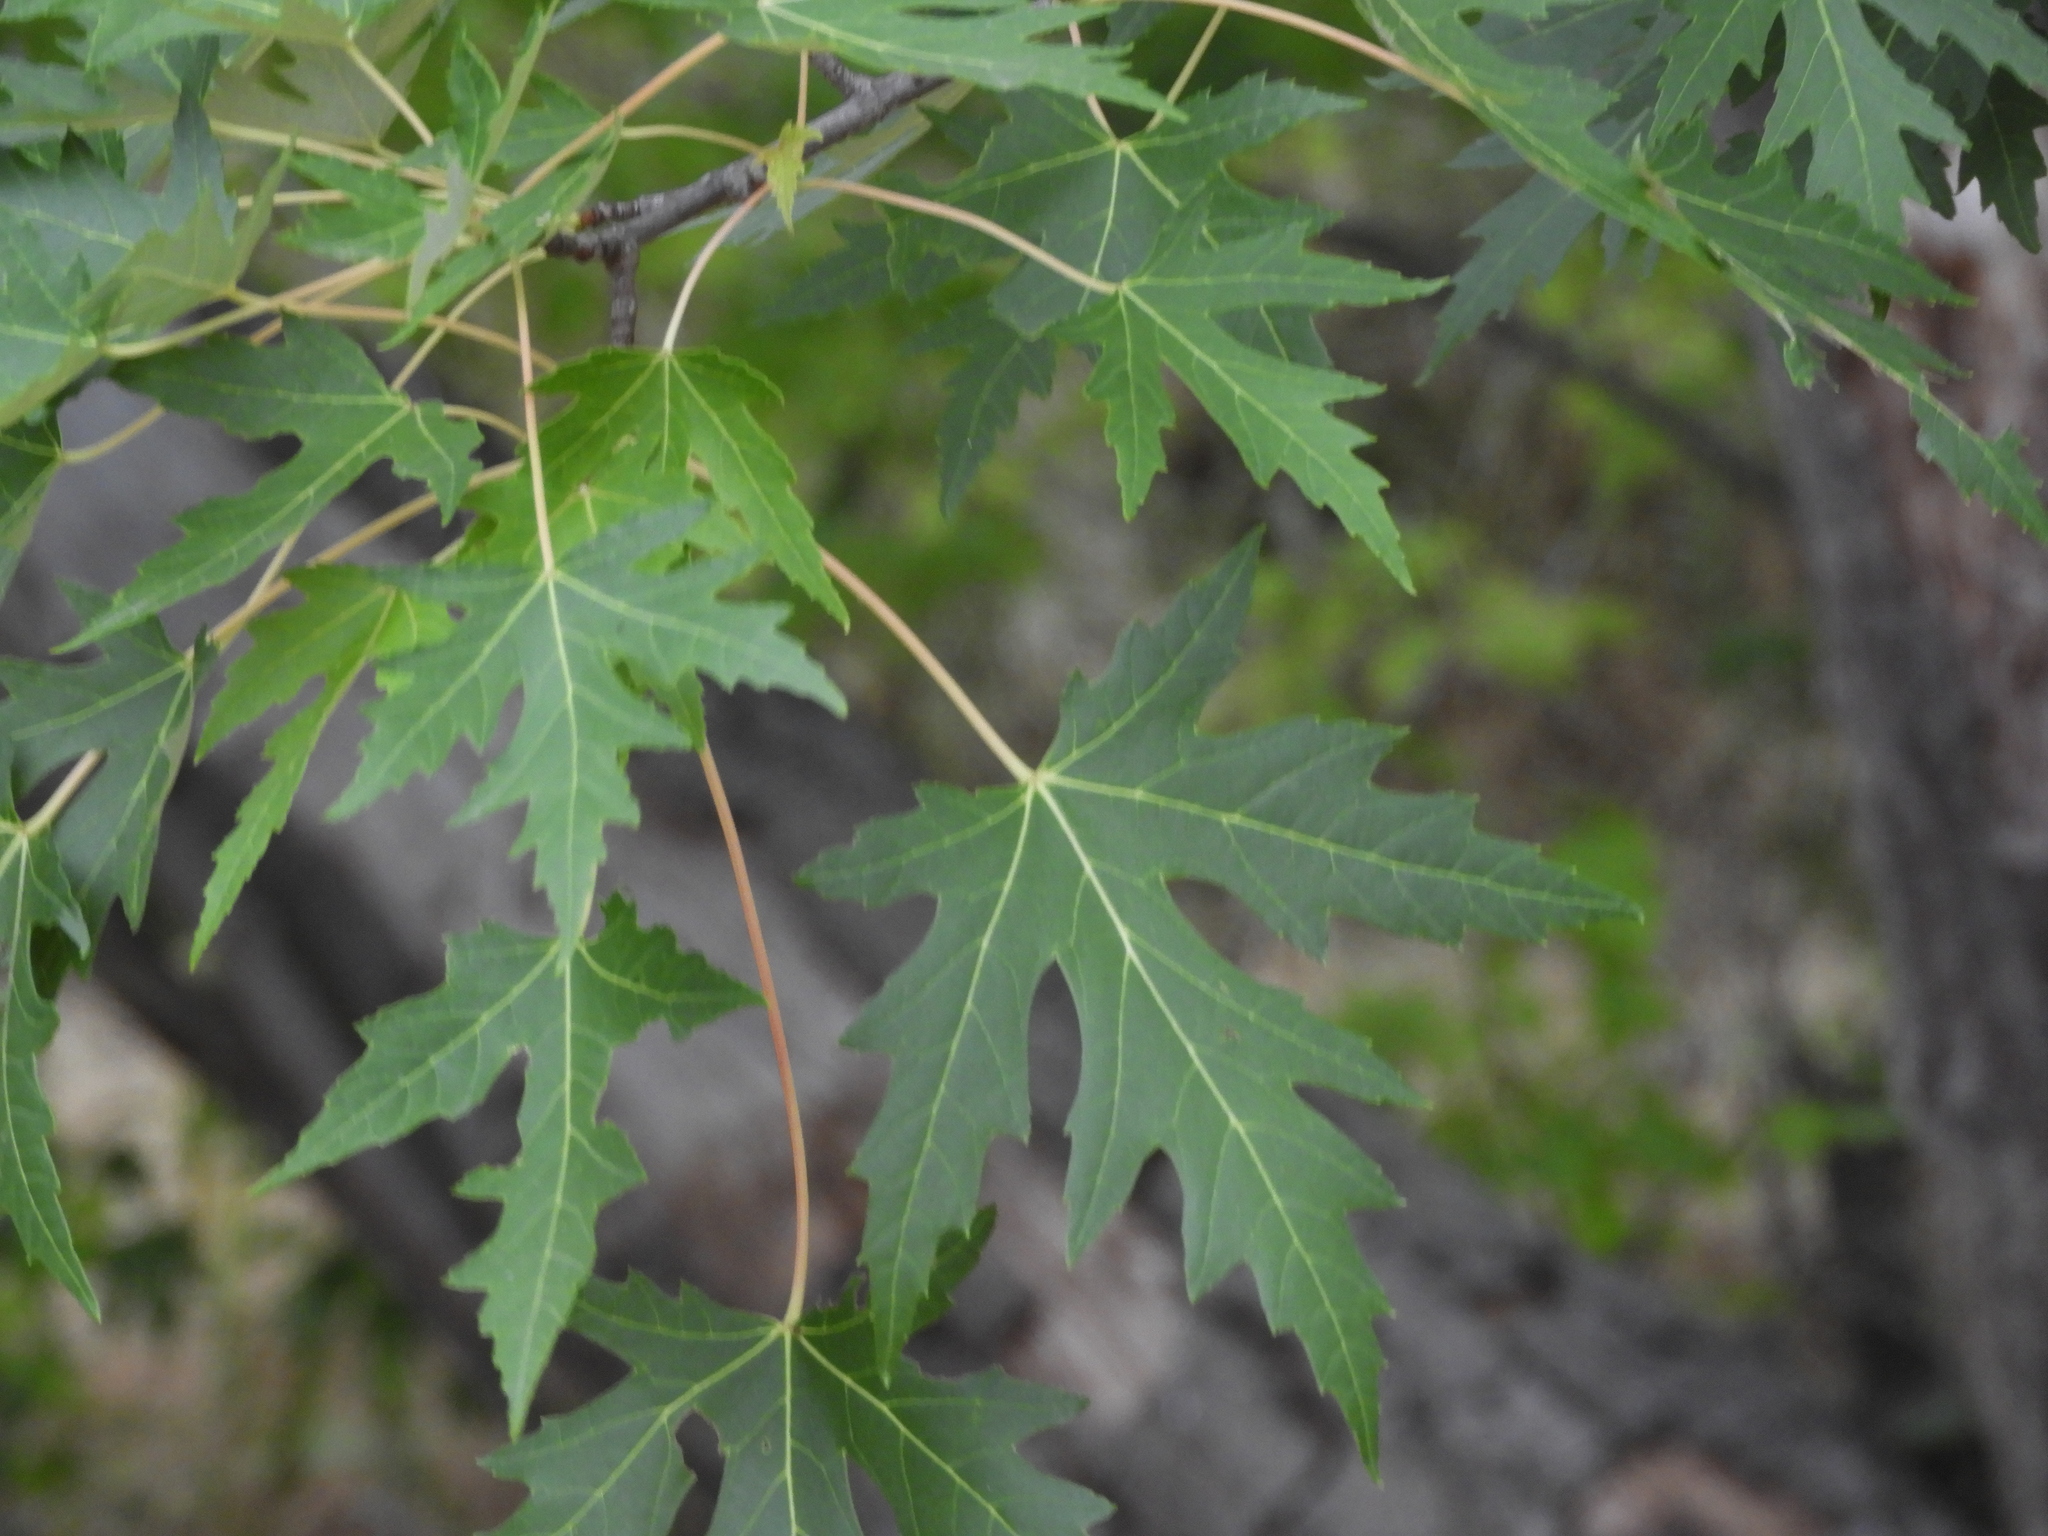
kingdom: Plantae
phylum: Tracheophyta
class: Magnoliopsida
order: Sapindales
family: Sapindaceae
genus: Acer
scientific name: Acer saccharinum
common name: Silver maple
